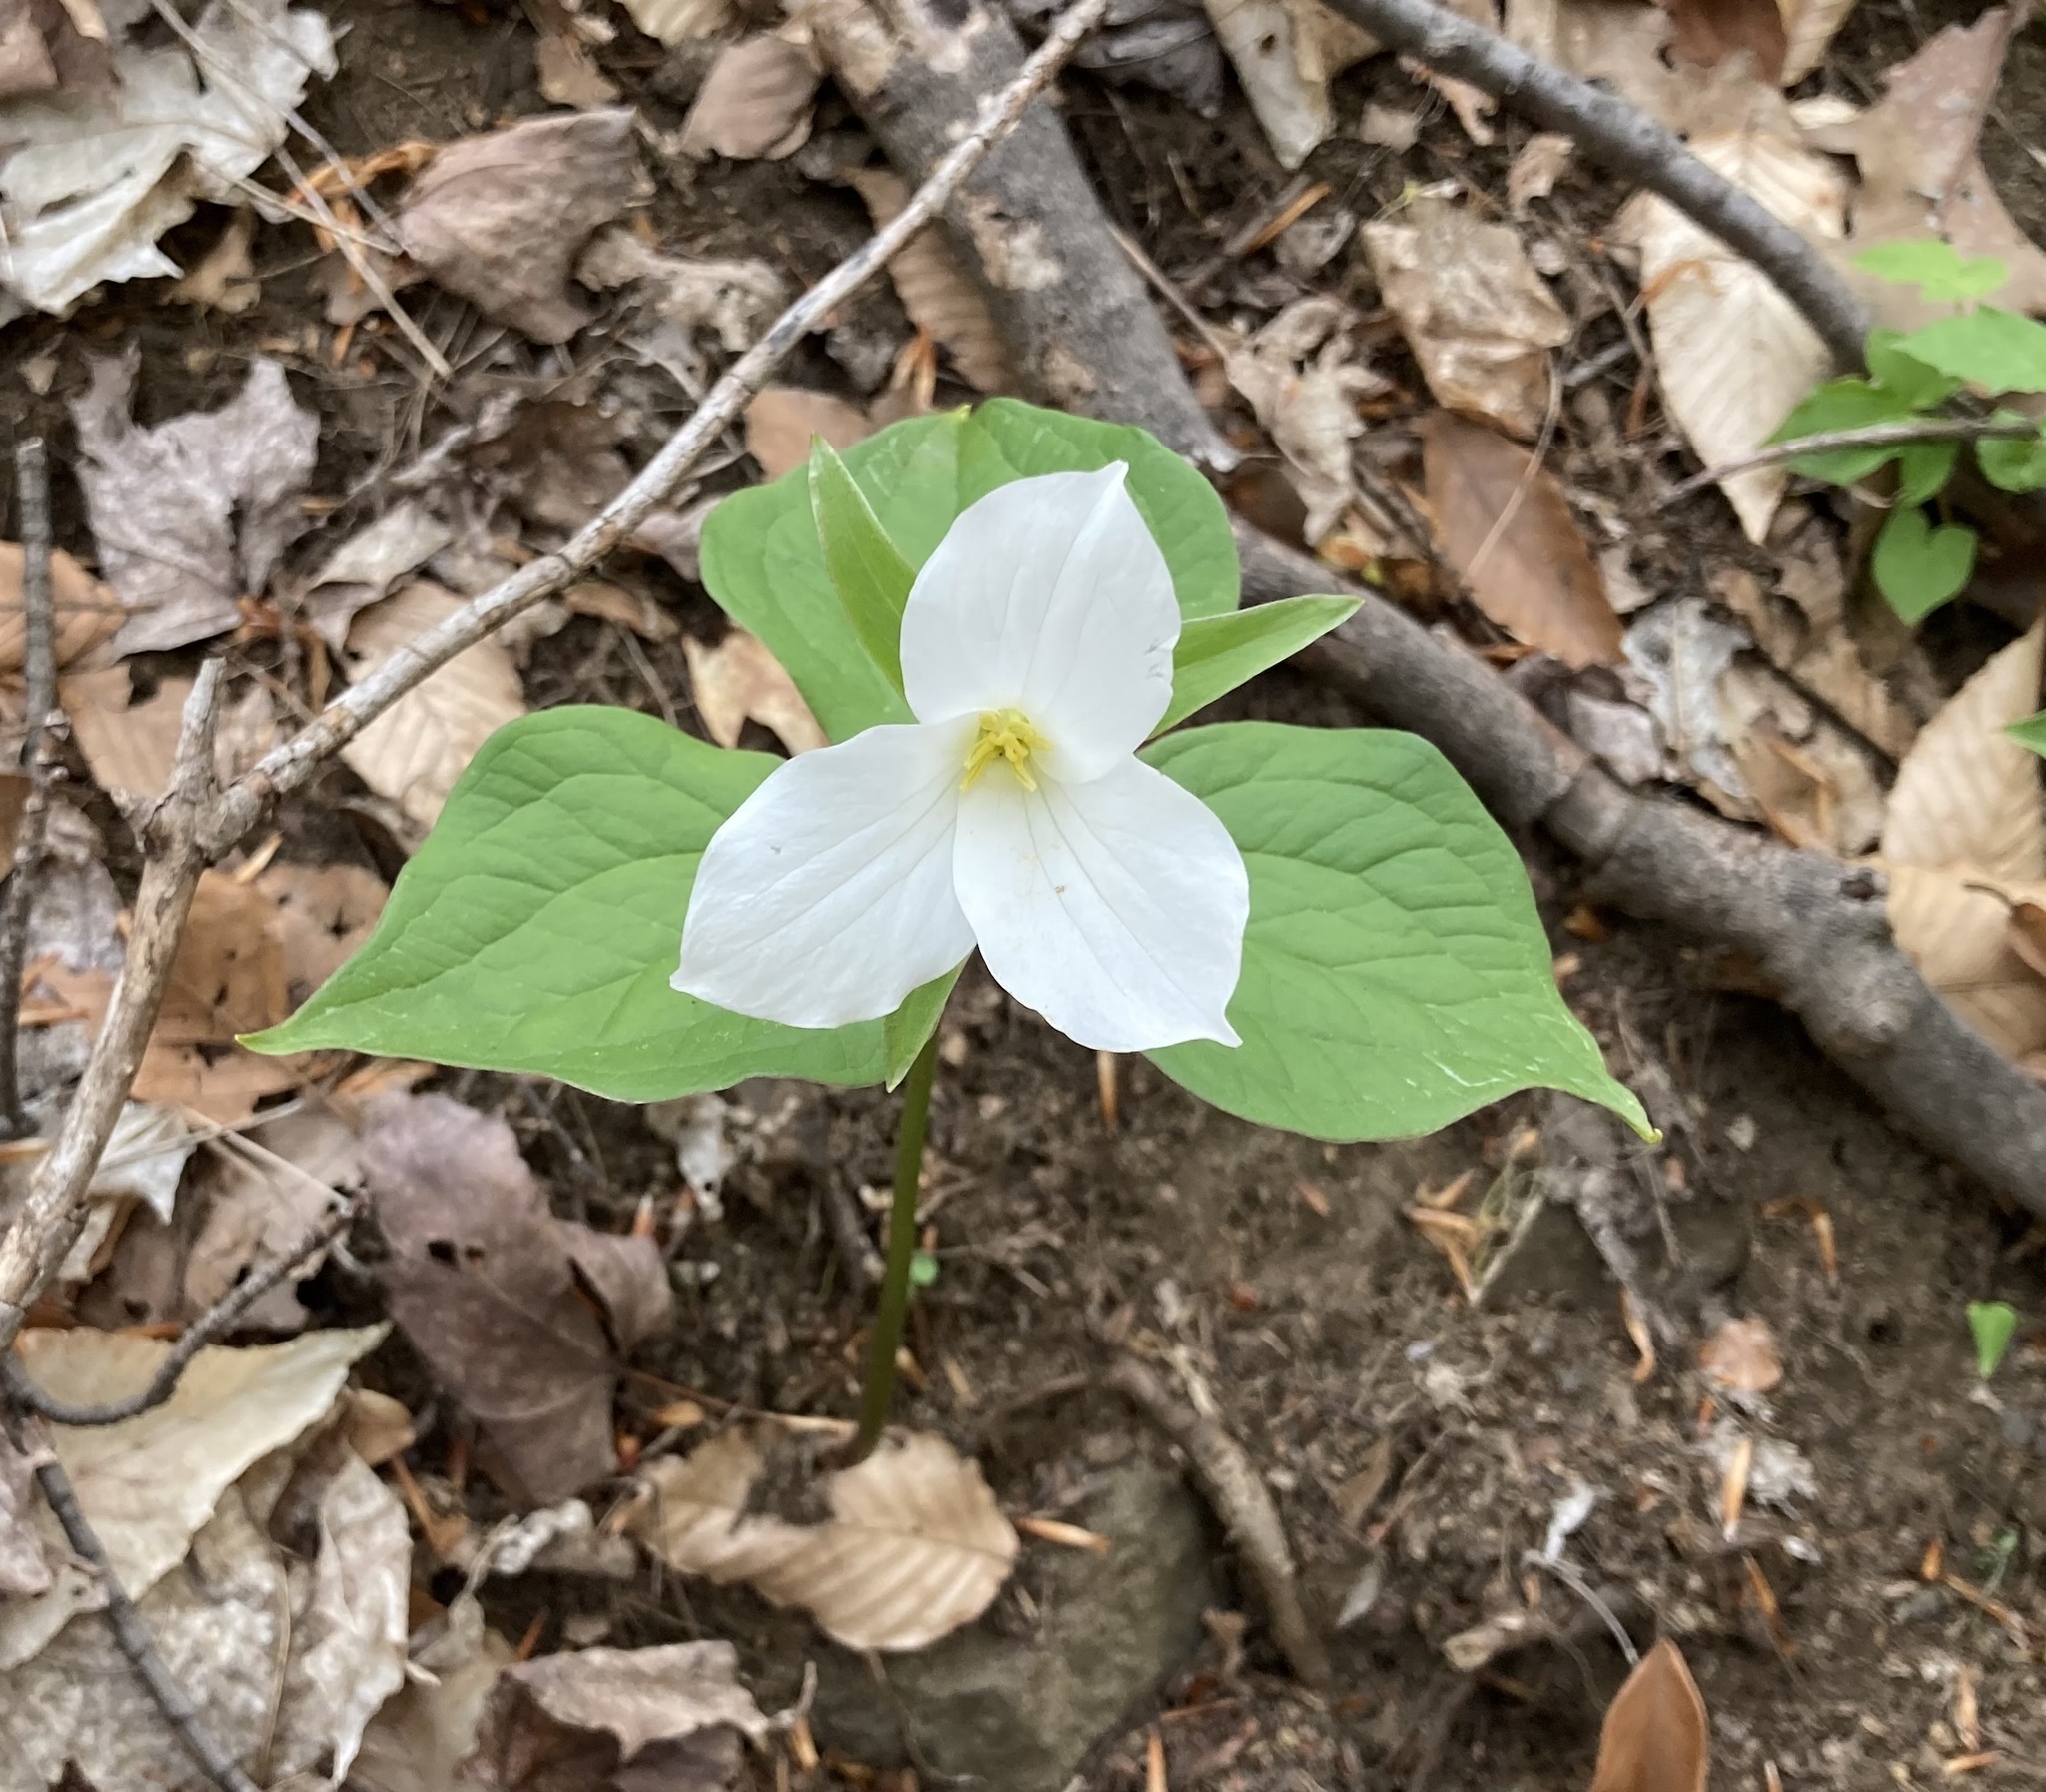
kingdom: Plantae
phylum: Tracheophyta
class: Liliopsida
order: Liliales
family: Melanthiaceae
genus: Trillium
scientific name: Trillium grandiflorum
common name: Great white trillium
